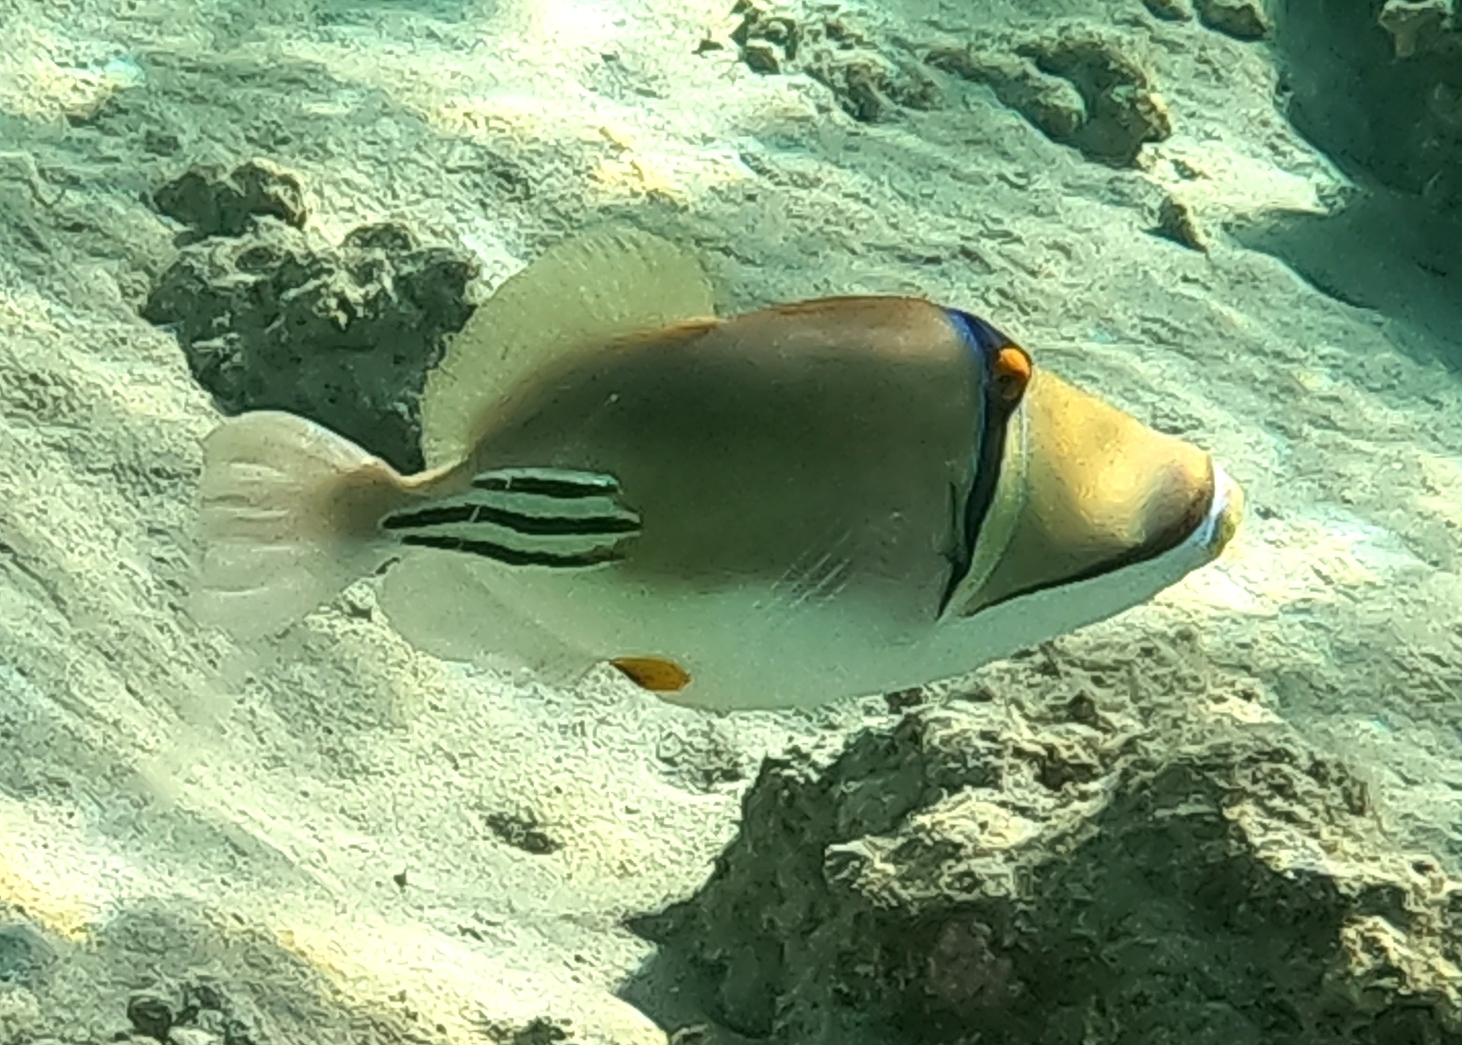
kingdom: Animalia
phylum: Chordata
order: Tetraodontiformes
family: Balistidae
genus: Rhinecanthus
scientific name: Rhinecanthus assasi
